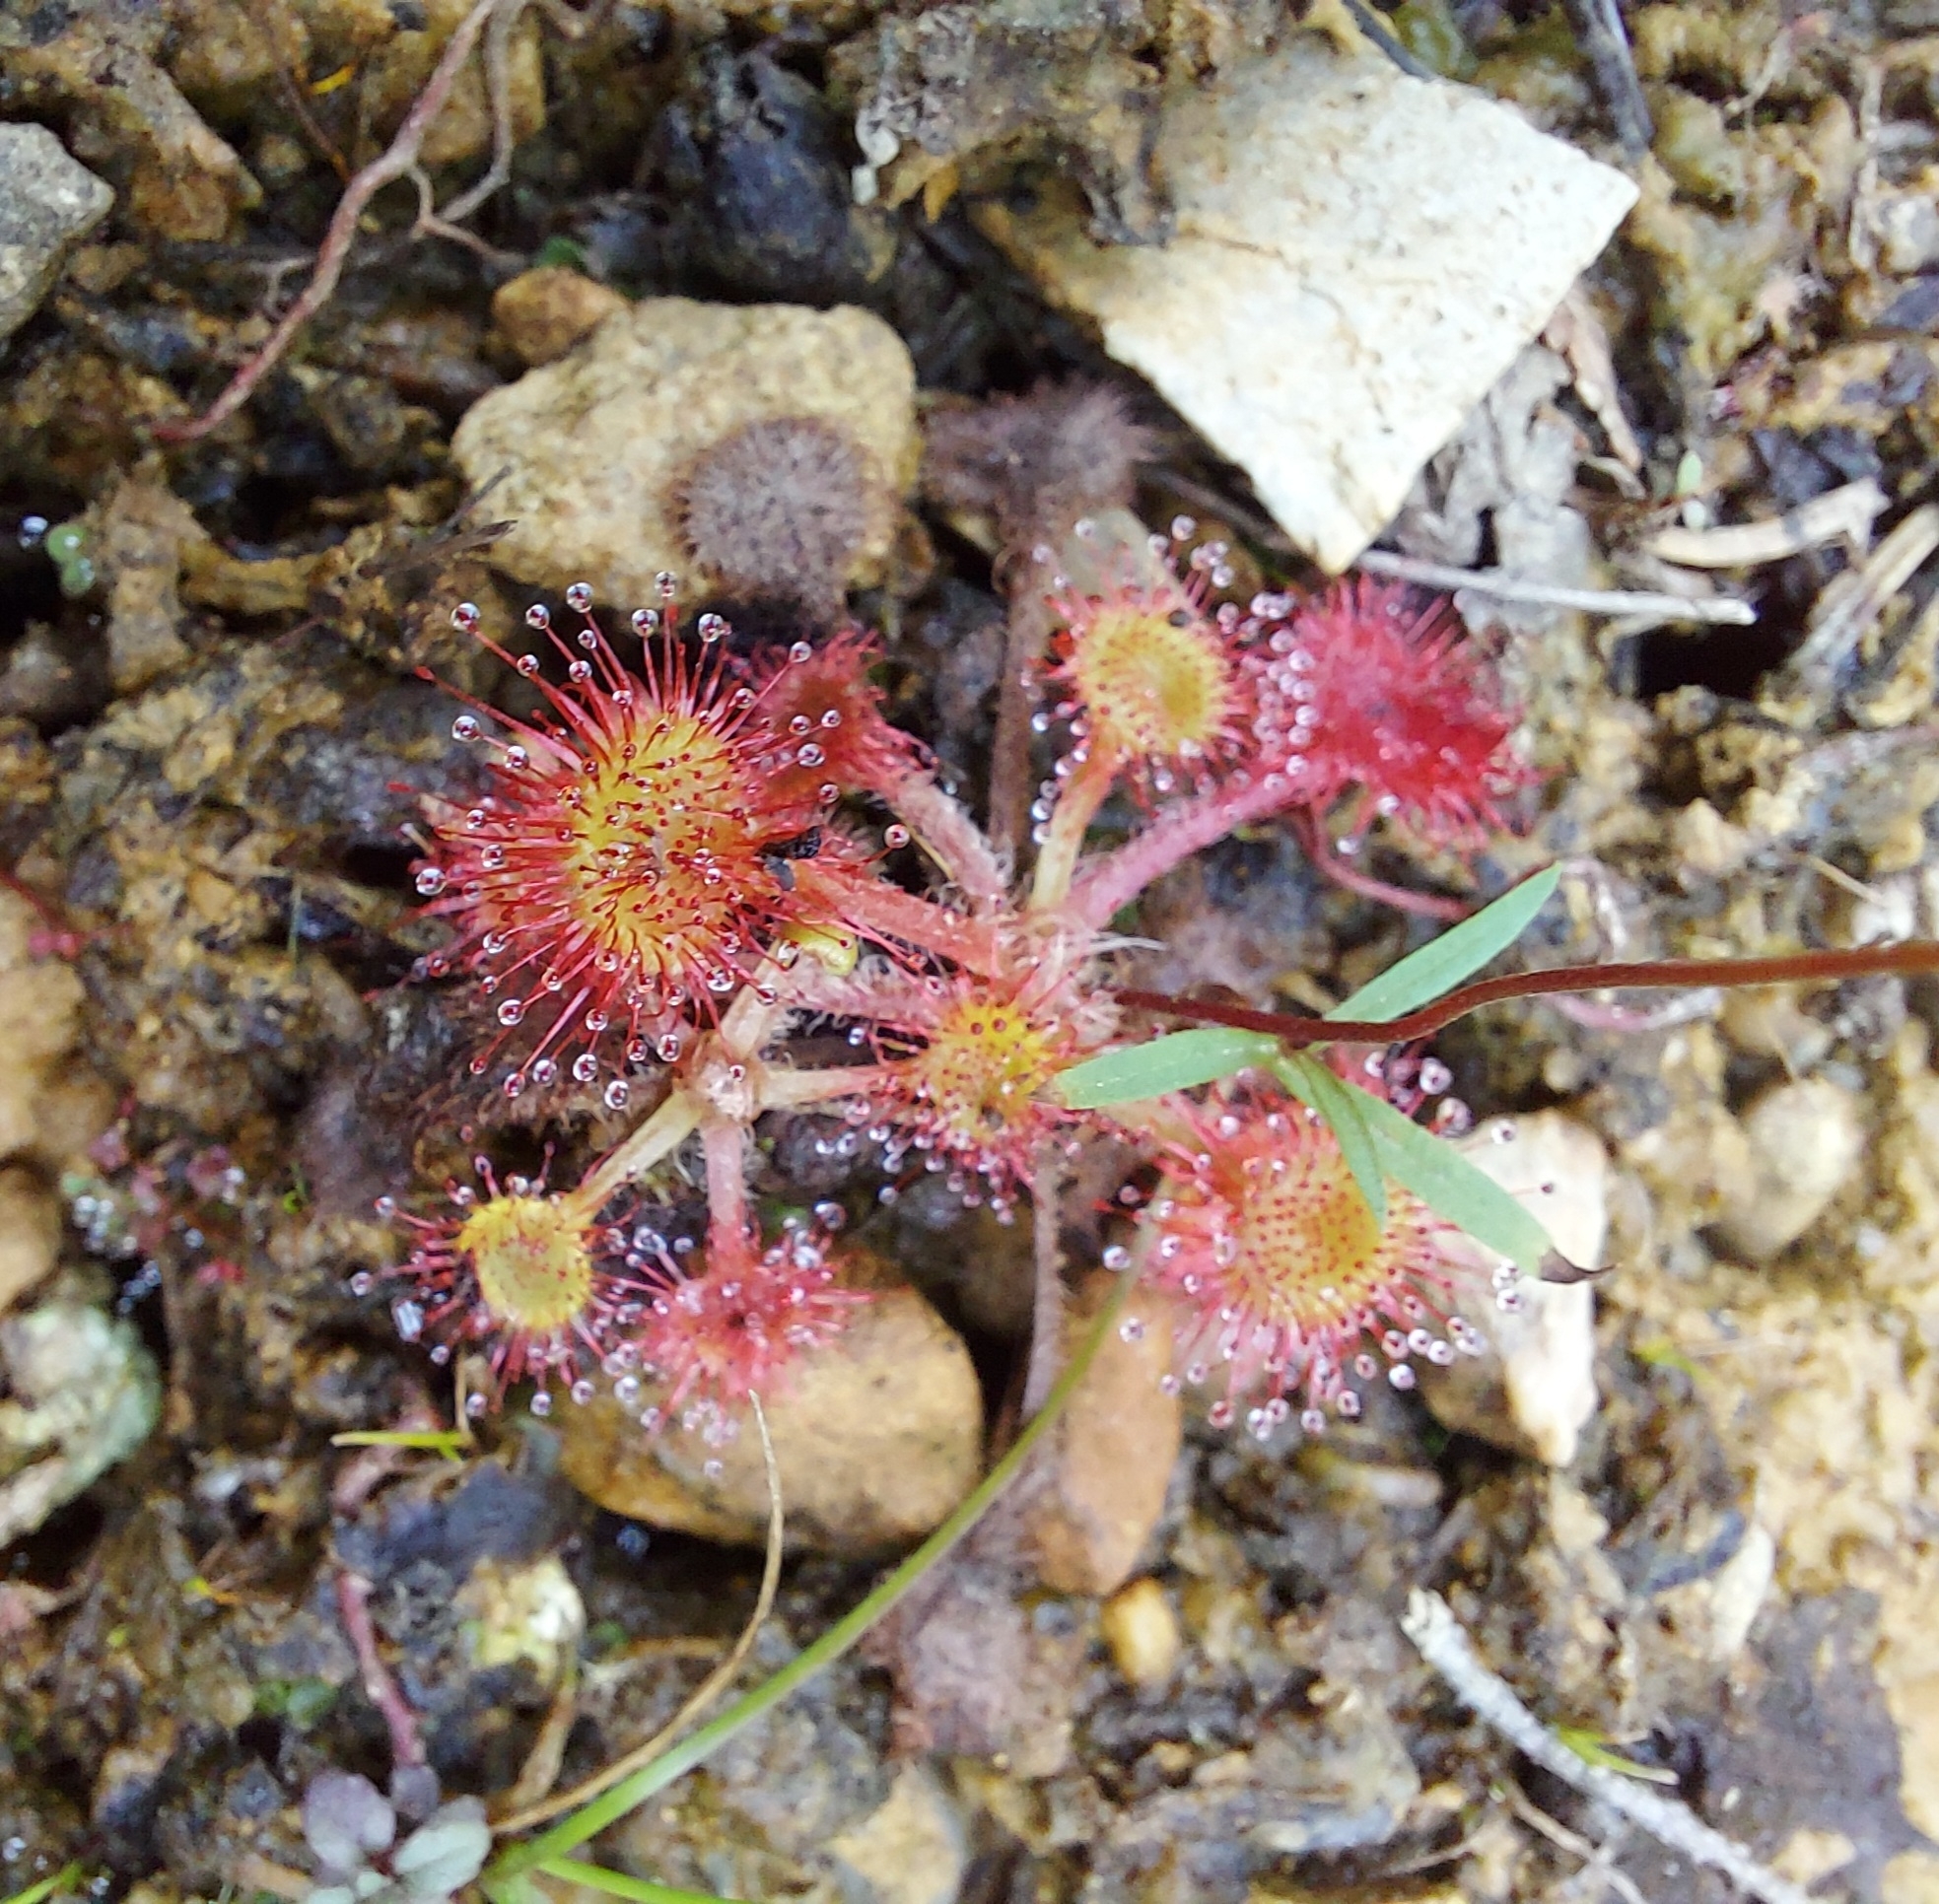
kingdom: Plantae
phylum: Tracheophyta
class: Magnoliopsida
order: Caryophyllales
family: Droseraceae
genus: Drosera
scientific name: Drosera rotundifolia
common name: Round-leaved sundew
